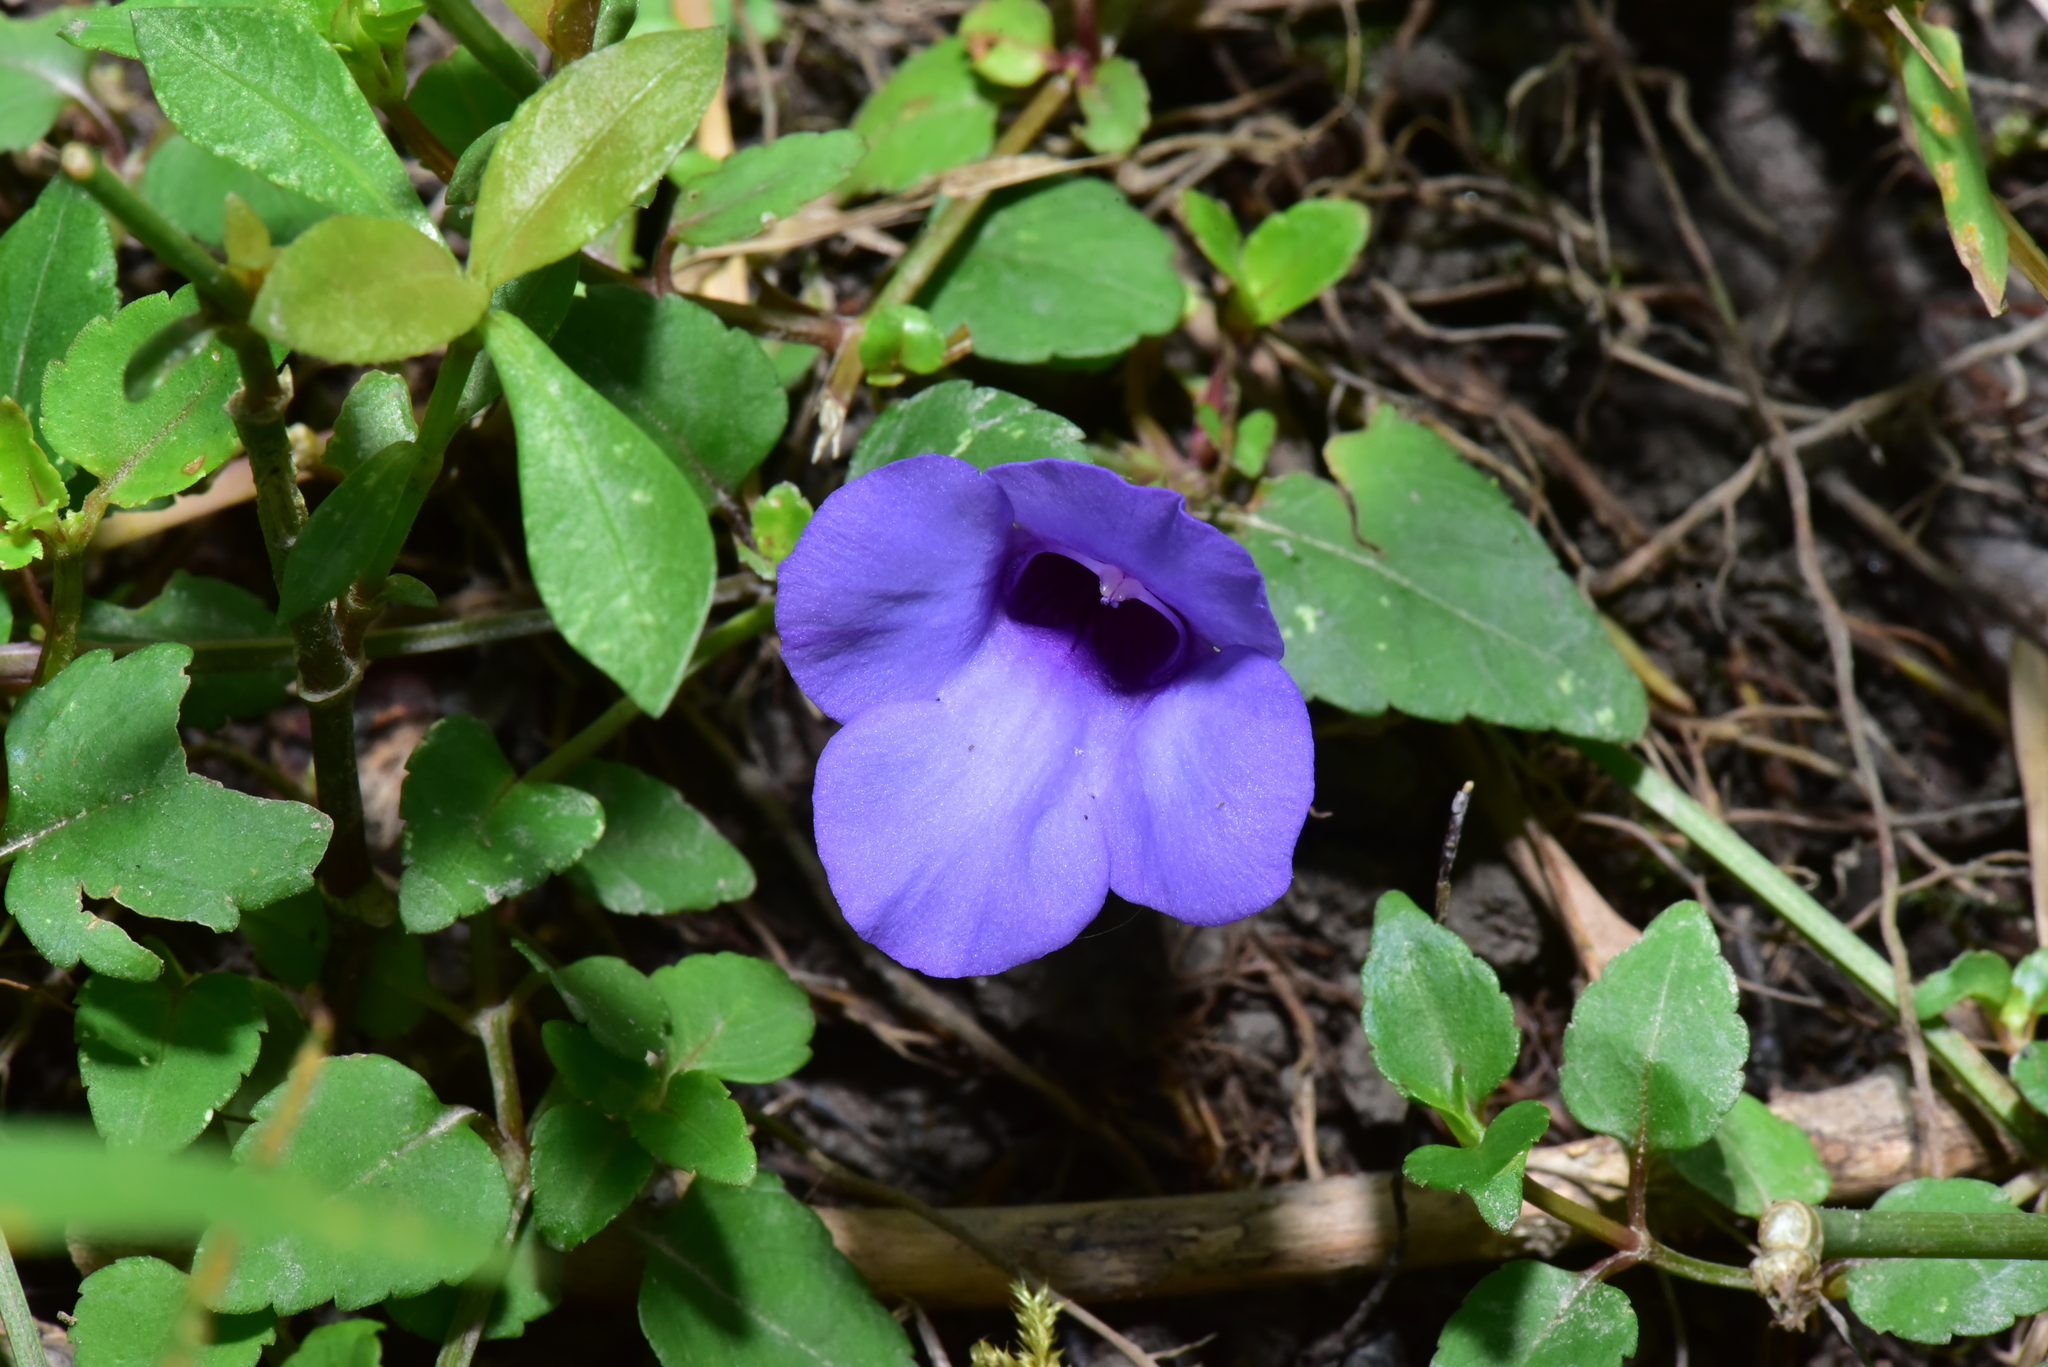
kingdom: Plantae
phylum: Tracheophyta
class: Magnoliopsida
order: Lamiales
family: Linderniaceae
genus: Torenia
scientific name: Torenia concolor
